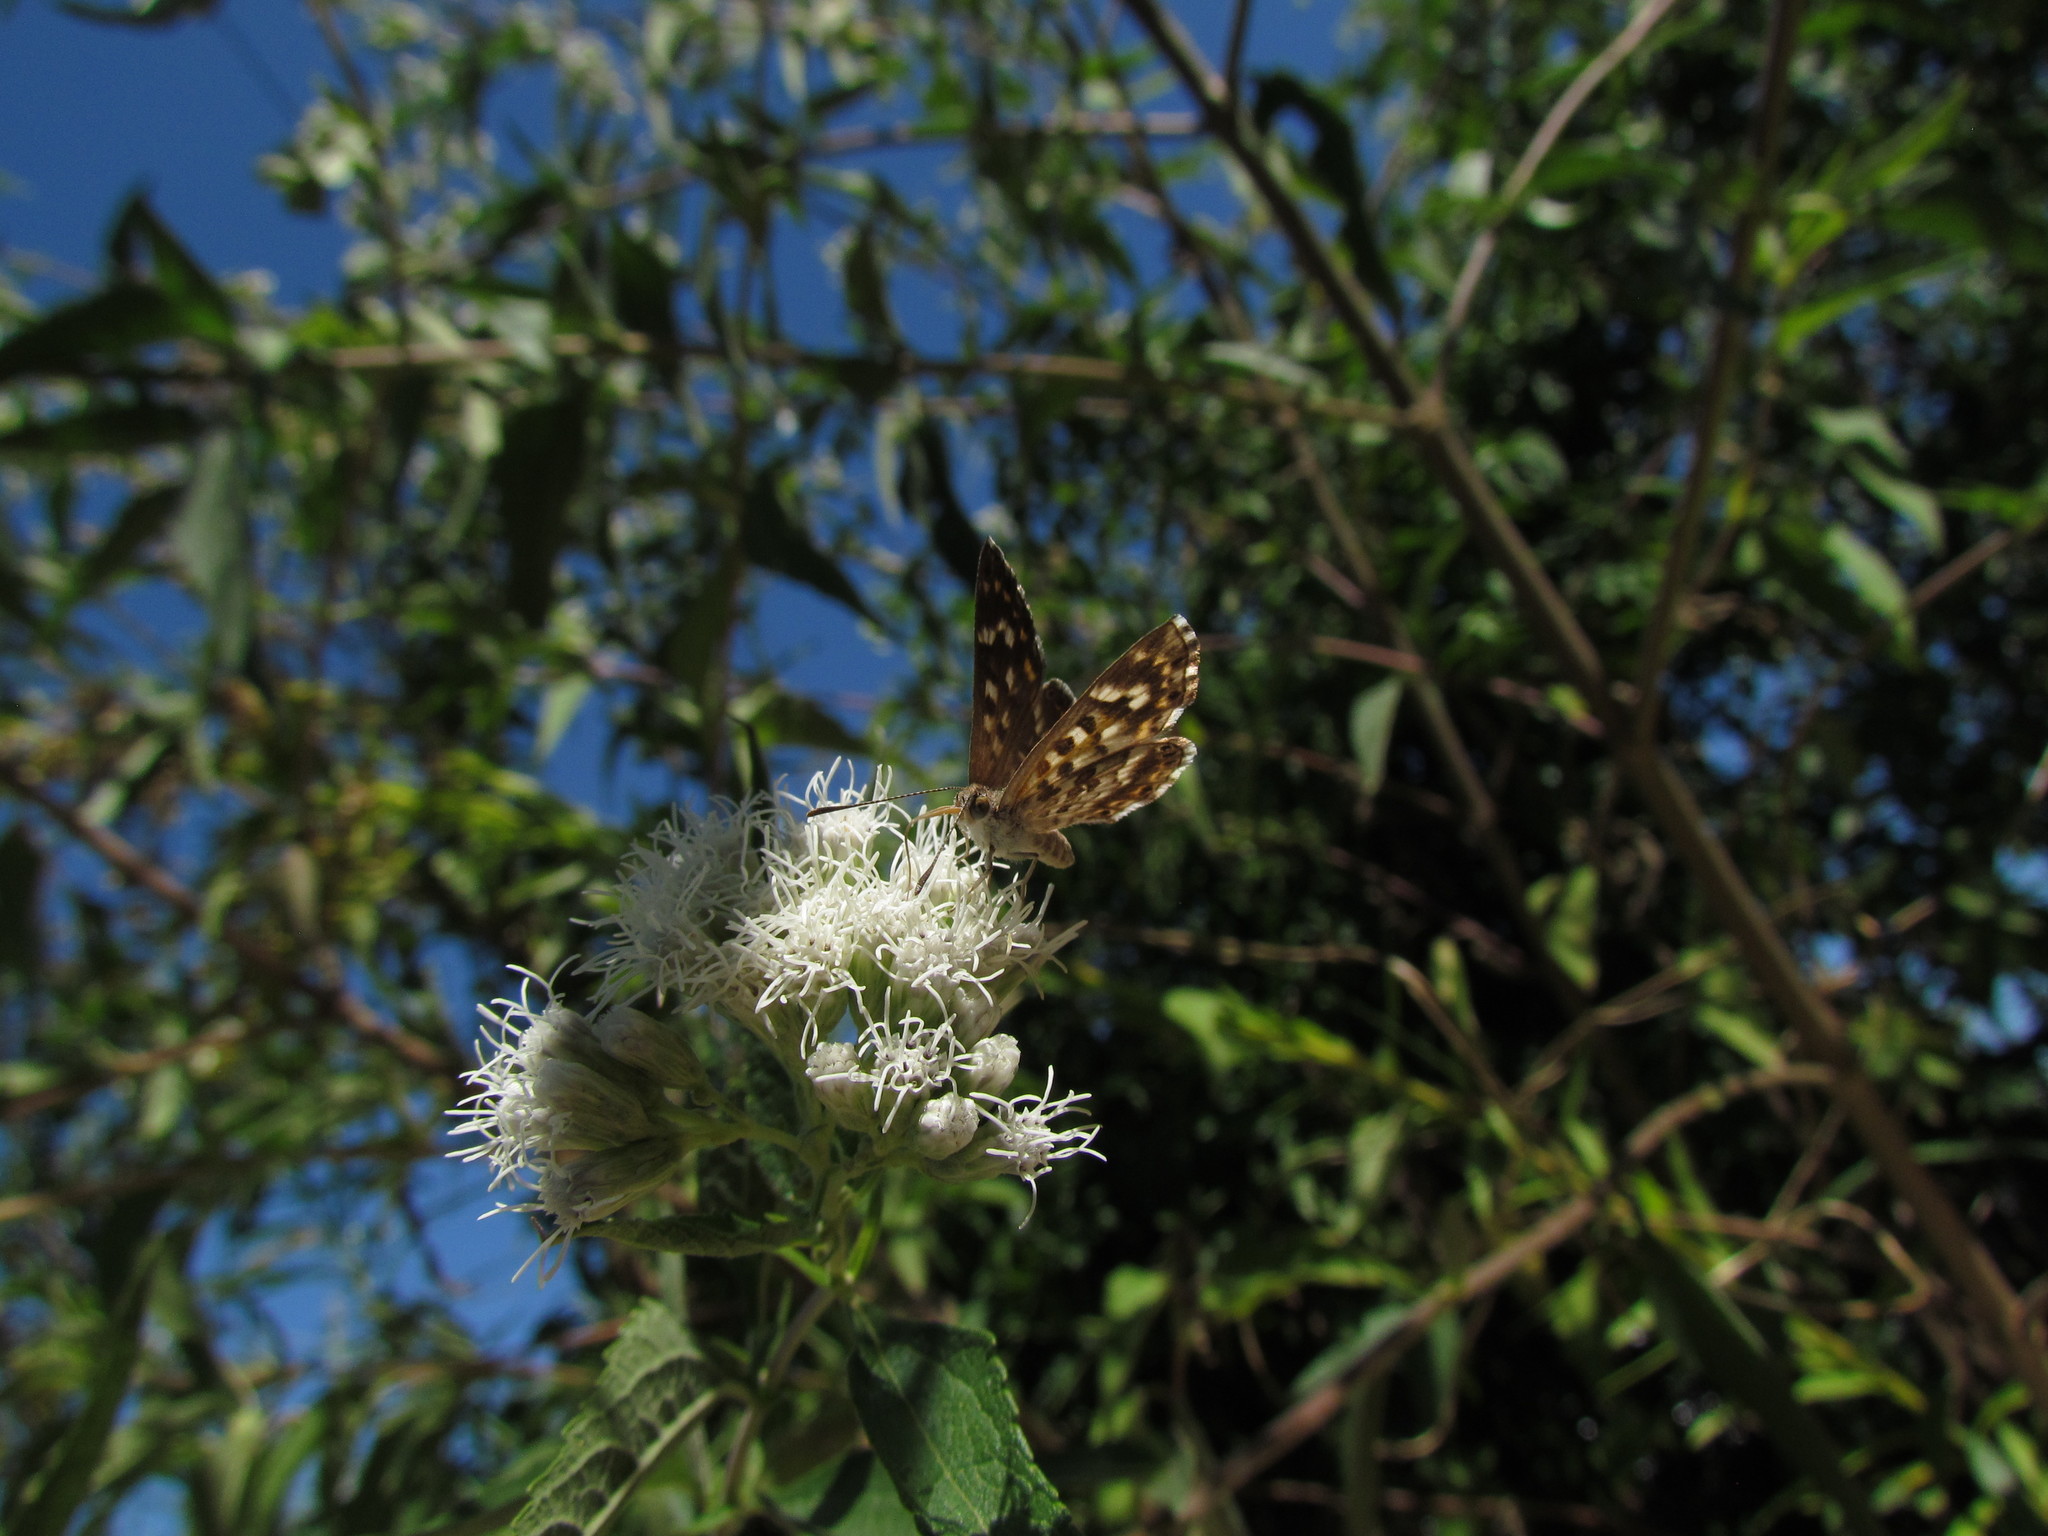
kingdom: Animalia
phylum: Arthropoda
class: Insecta
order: Lepidoptera
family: Lycaenidae
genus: Aricoris
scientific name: Aricoris signata
